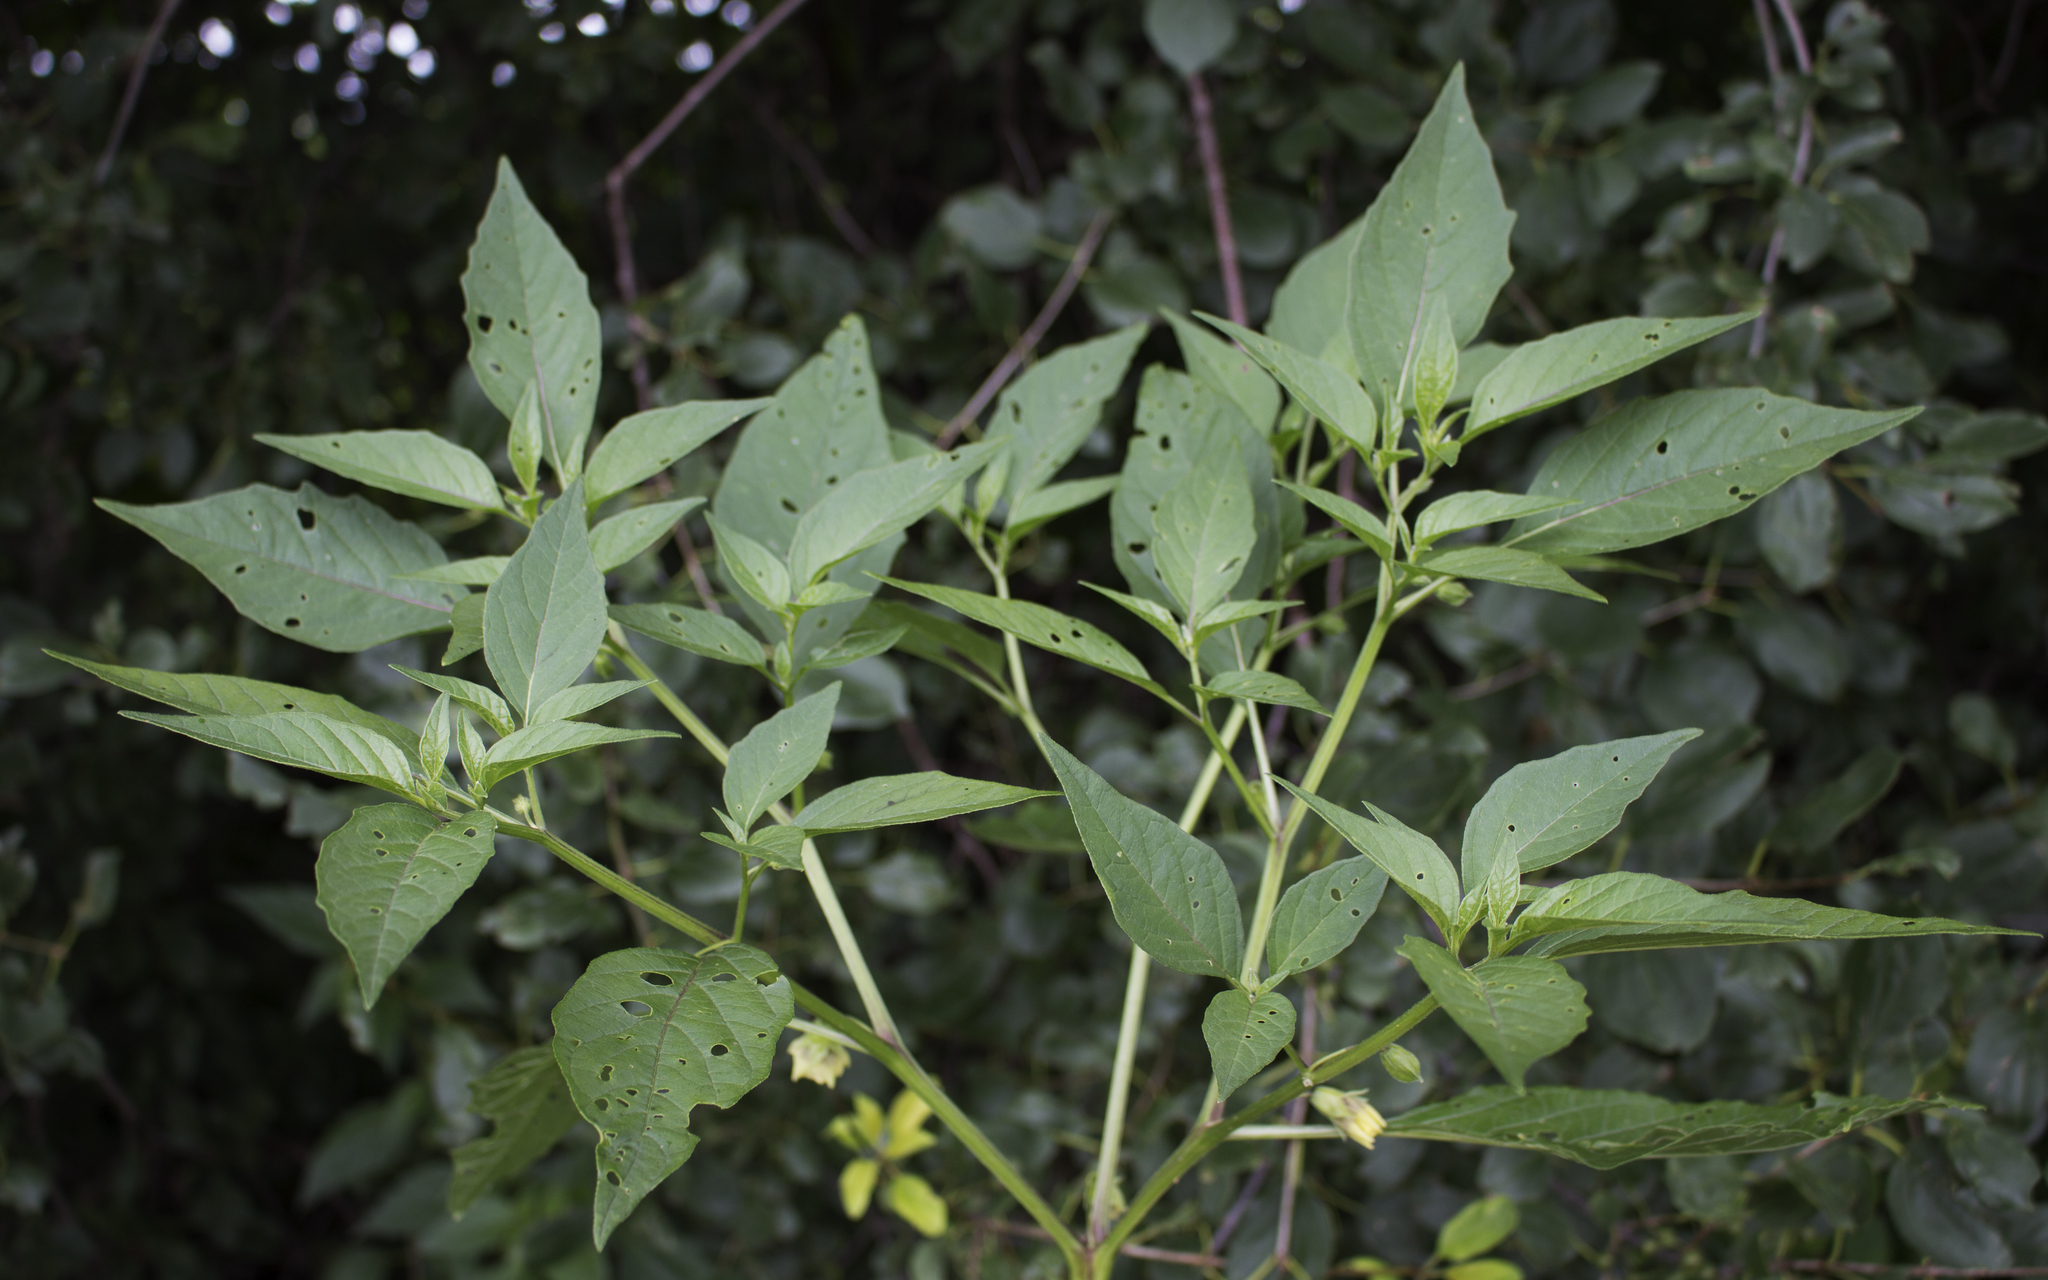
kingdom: Plantae
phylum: Tracheophyta
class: Magnoliopsida
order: Solanales
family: Solanaceae
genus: Physalis
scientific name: Physalis longifolia
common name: Common ground-cherry
